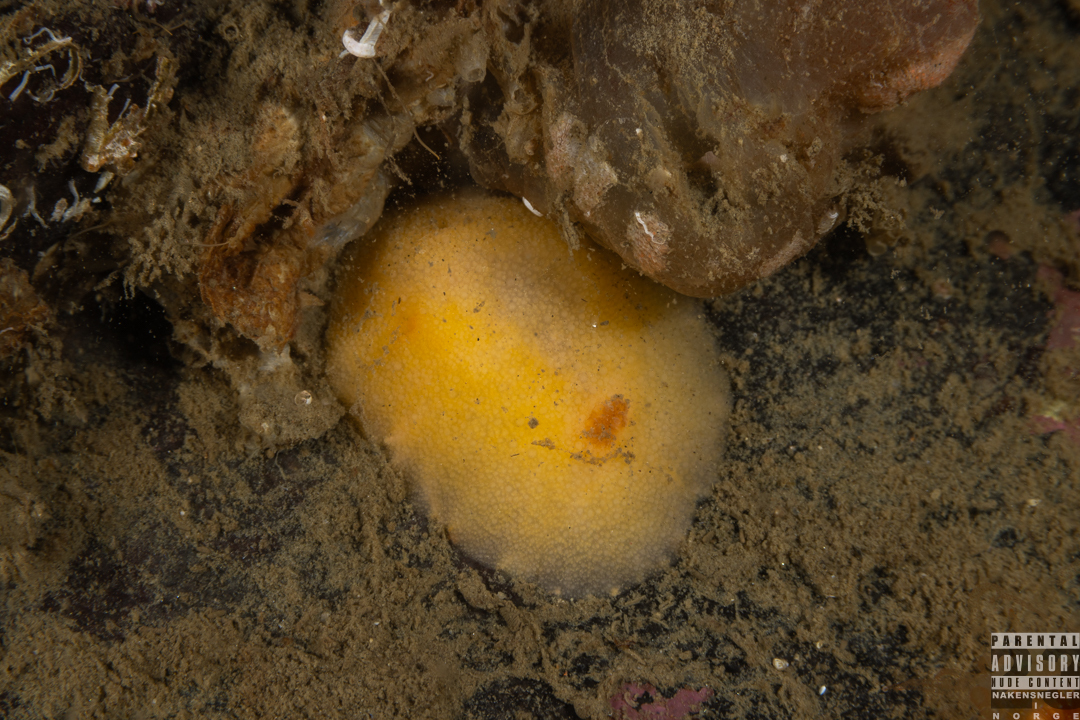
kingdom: Animalia
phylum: Mollusca
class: Gastropoda
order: Nudibranchia
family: Dorididae
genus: Doris
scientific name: Doris pseudoargus
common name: Sea lemon
